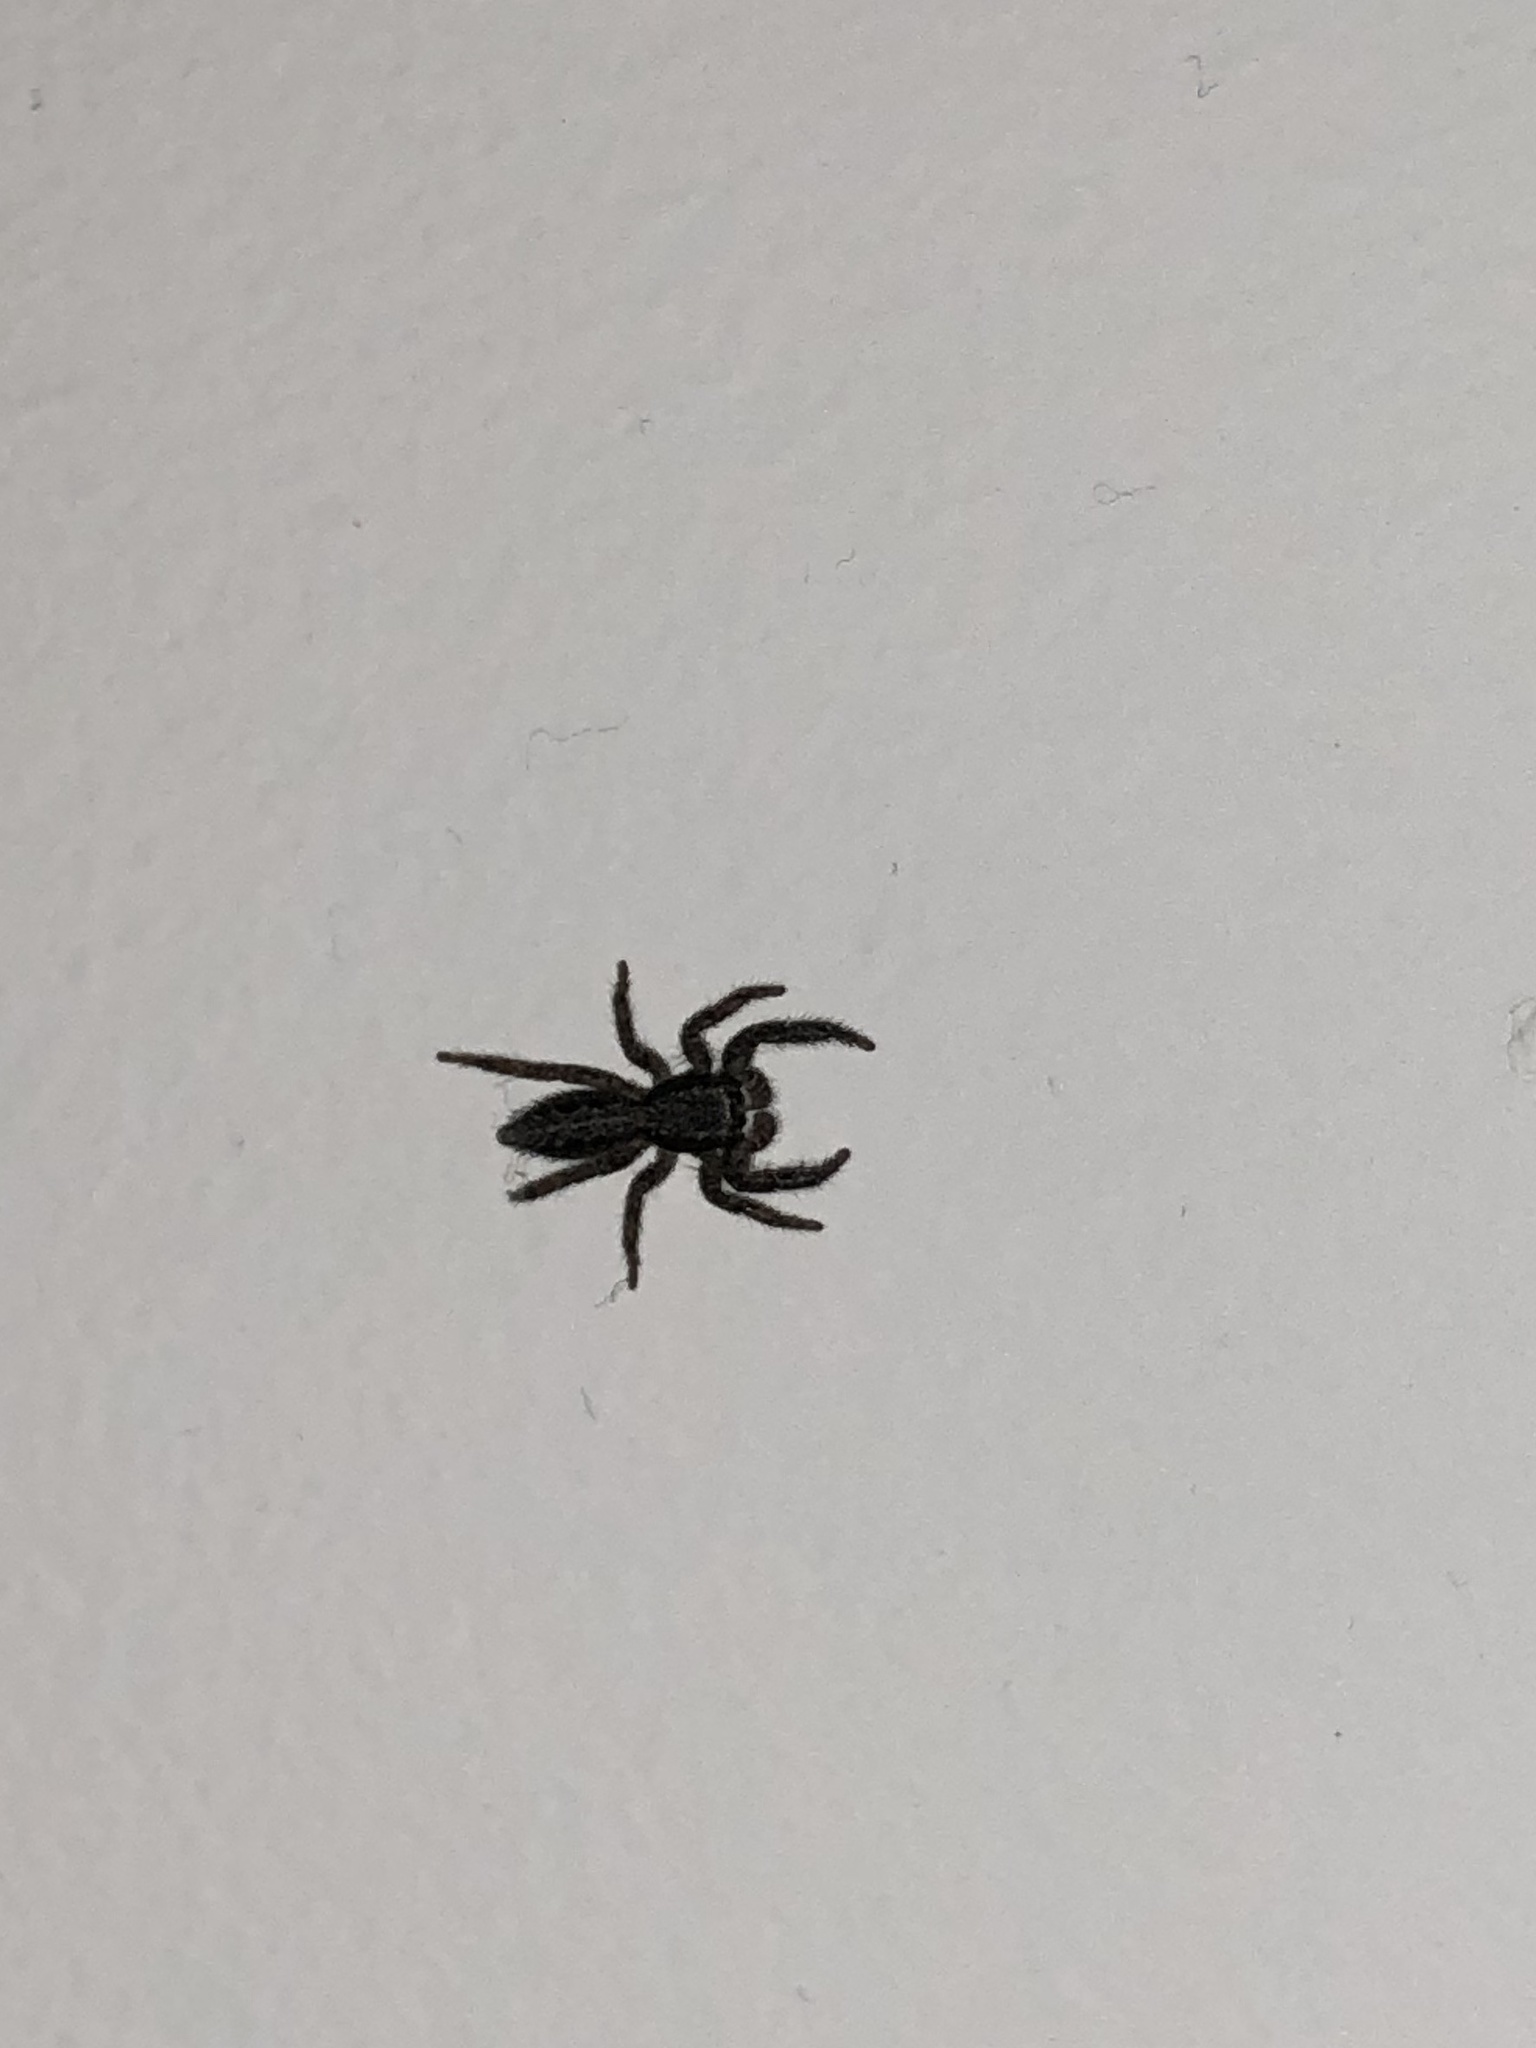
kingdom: Animalia
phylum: Arthropoda
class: Arachnida
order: Araneae
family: Salticidae
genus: Platycryptus
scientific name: Platycryptus californicus
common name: Jumping spiders
